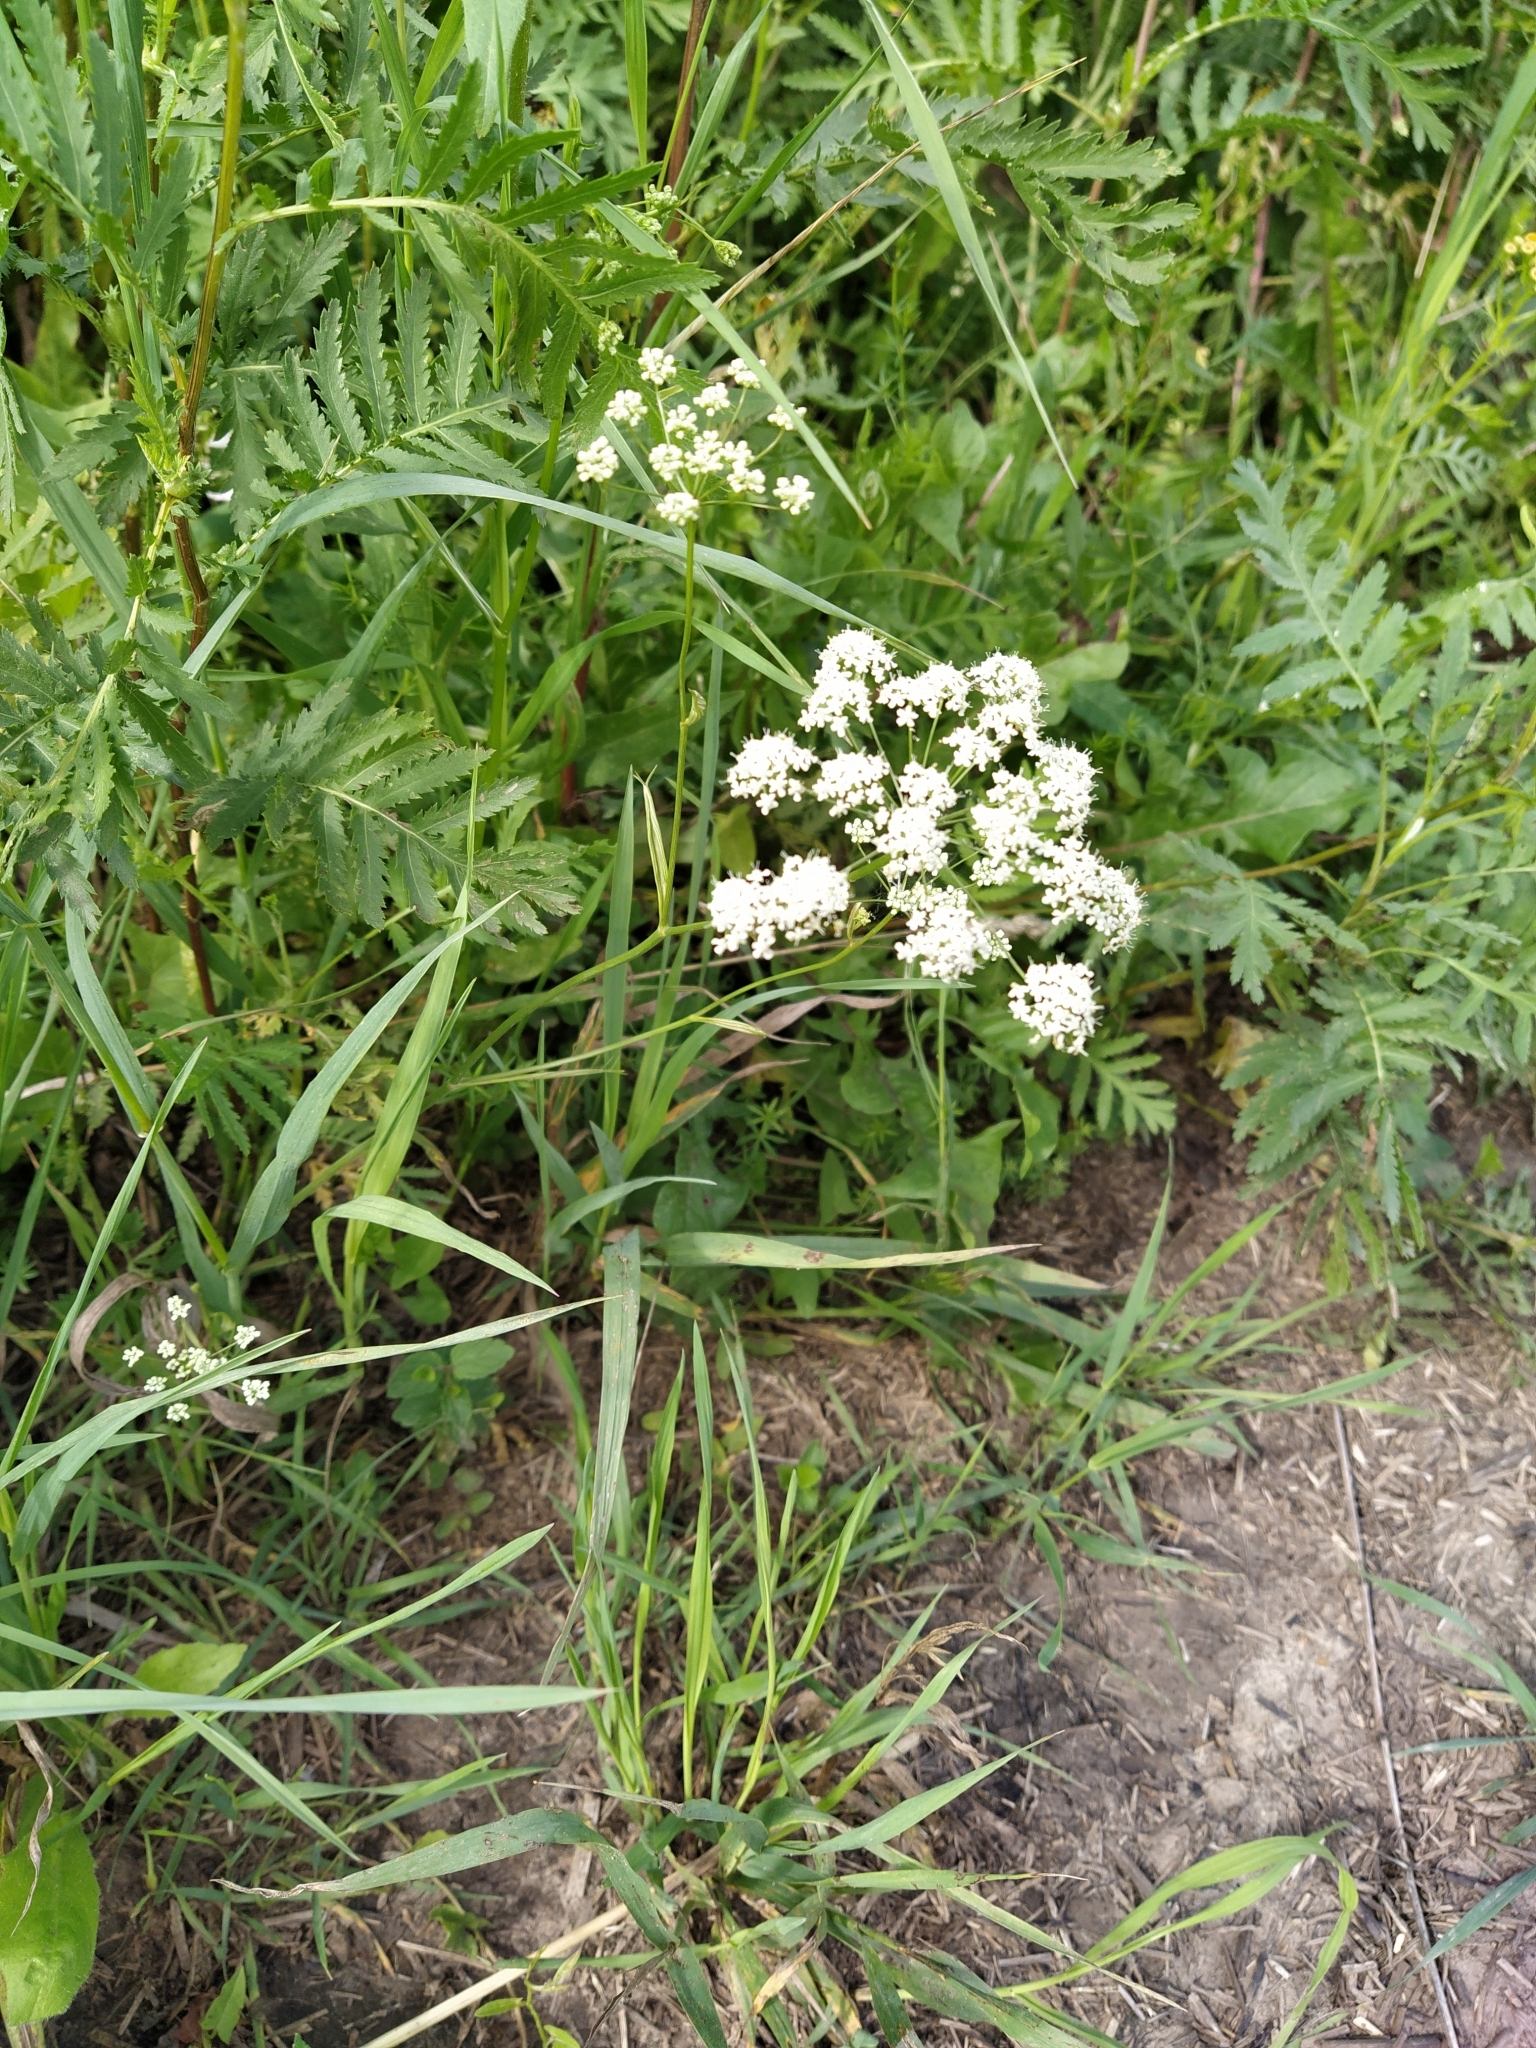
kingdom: Plantae
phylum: Tracheophyta
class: Magnoliopsida
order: Apiales
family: Apiaceae
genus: Pimpinella
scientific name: Pimpinella saxifraga
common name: Burnet-saxifrage
